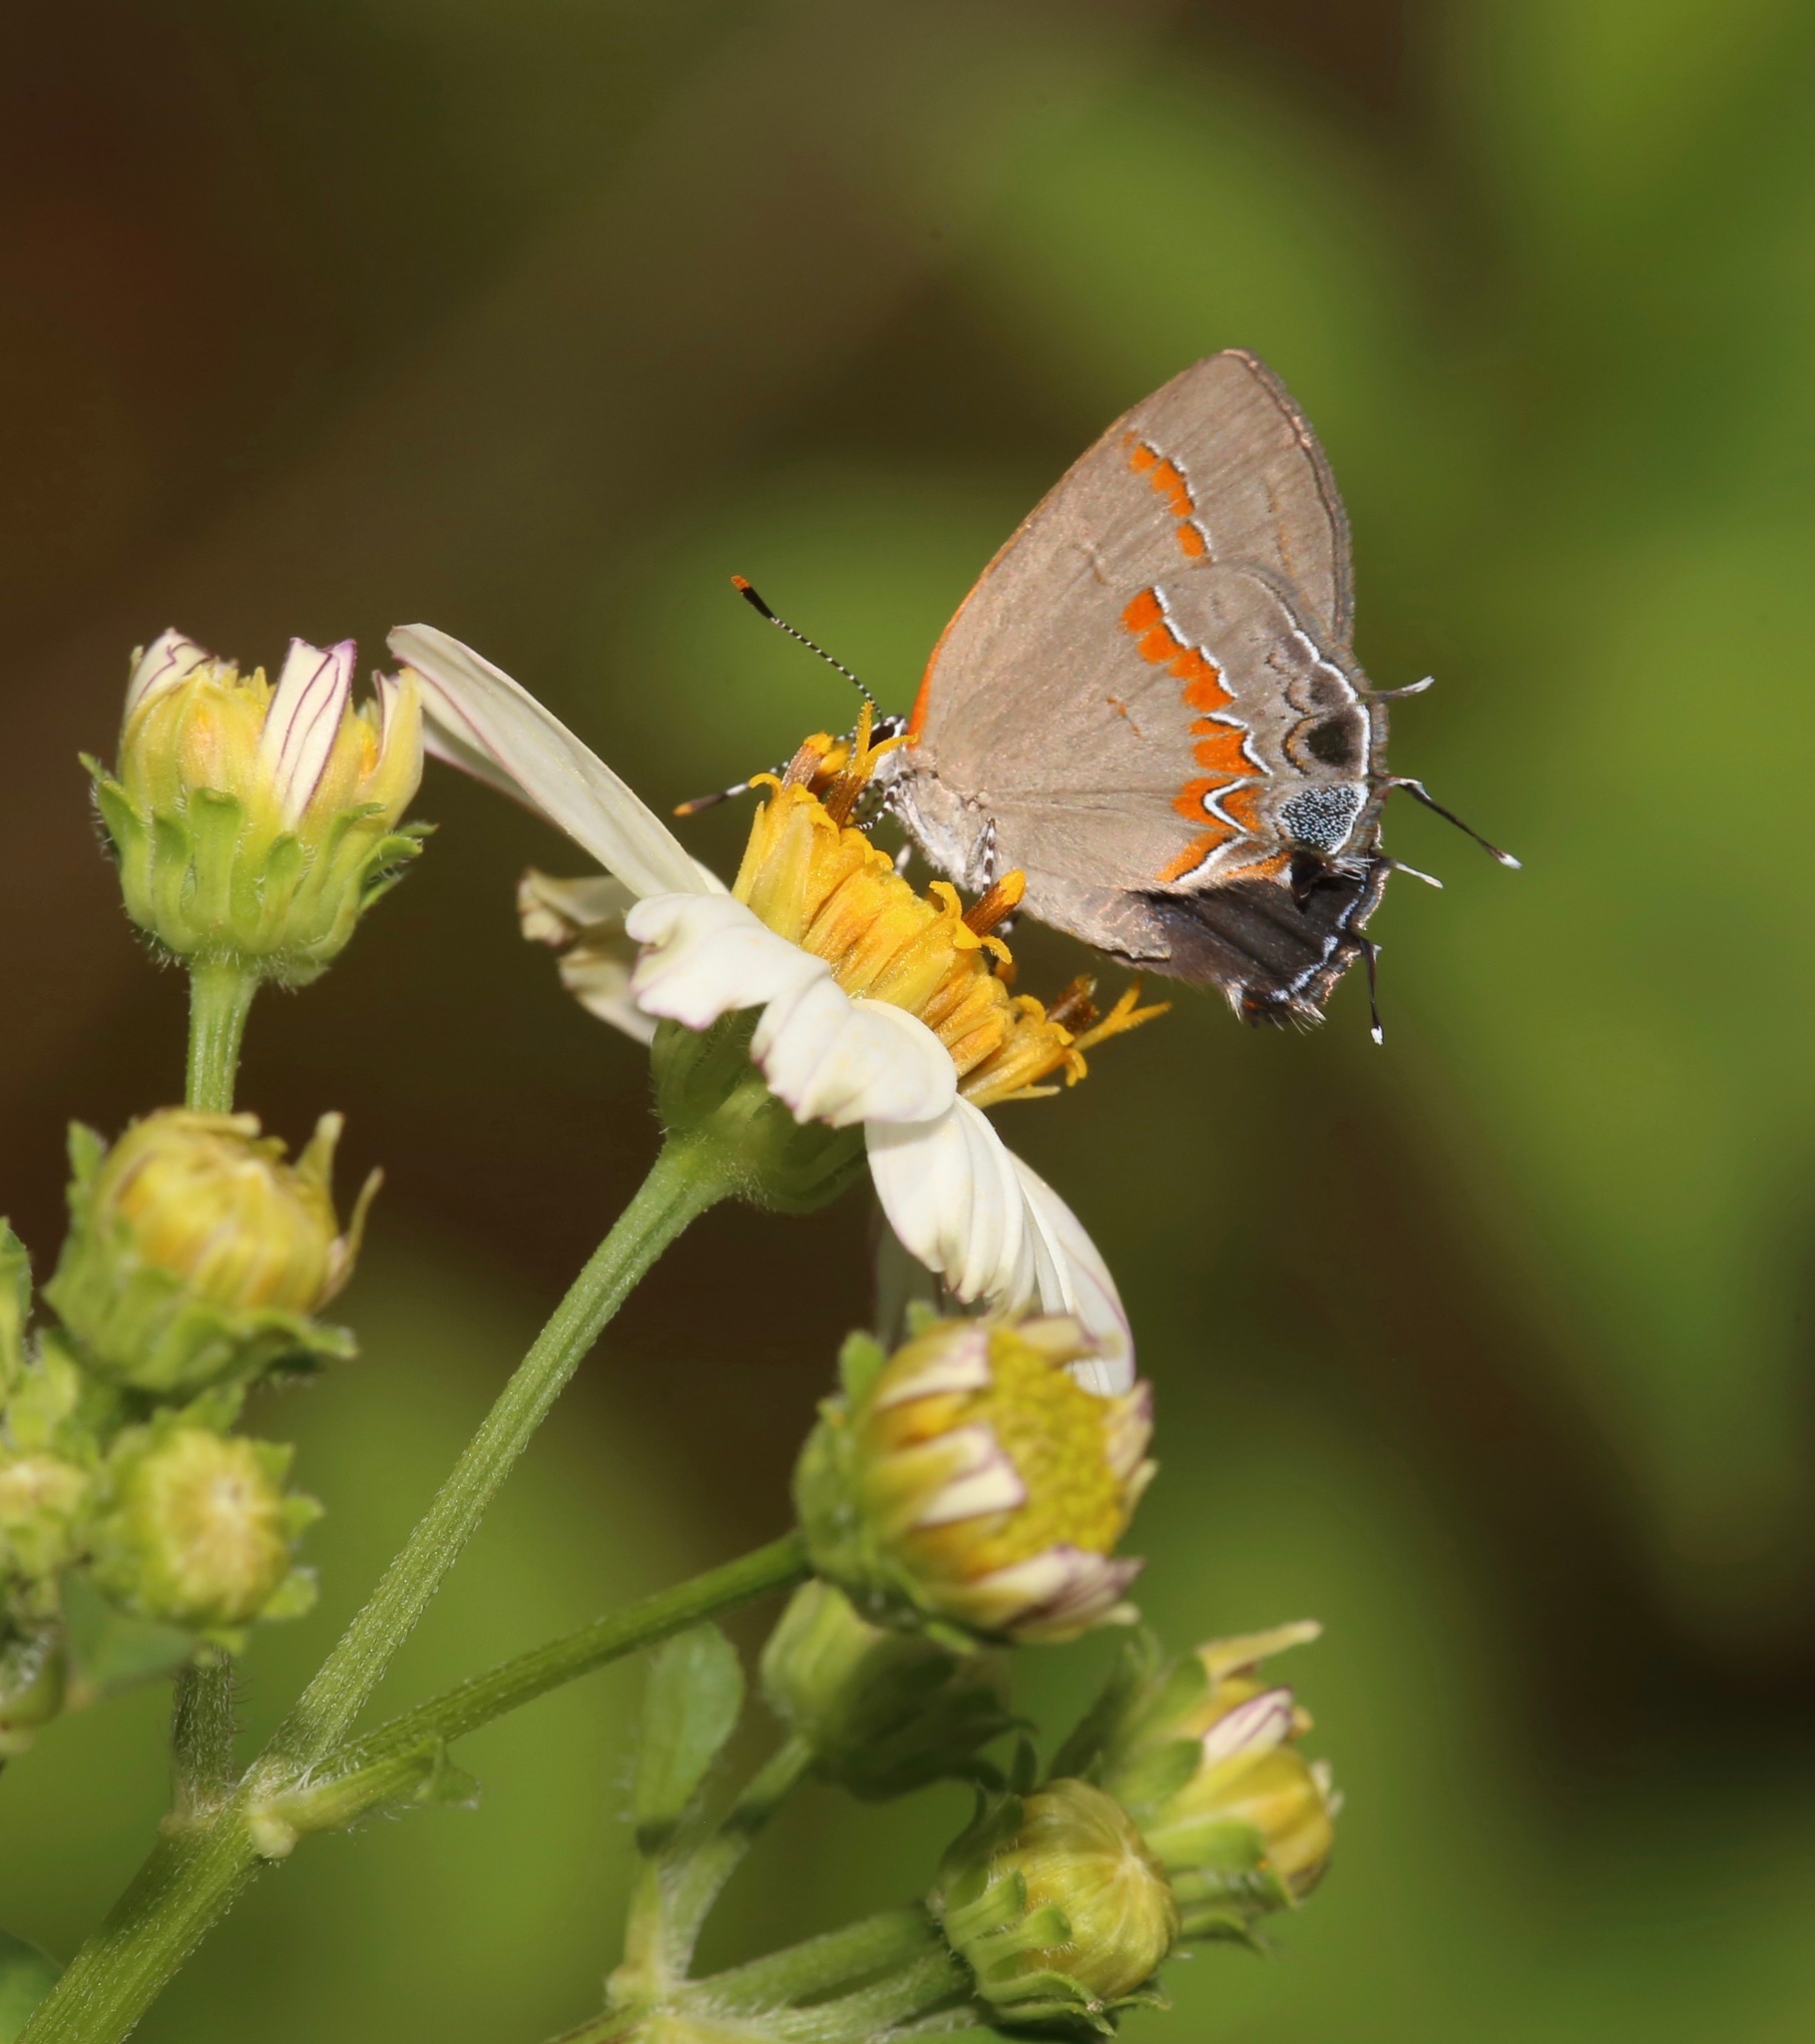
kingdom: Animalia
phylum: Arthropoda
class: Insecta
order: Lepidoptera
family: Lycaenidae
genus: Calycopis
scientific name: Calycopis cecrops
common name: Red-banded hairstreak
